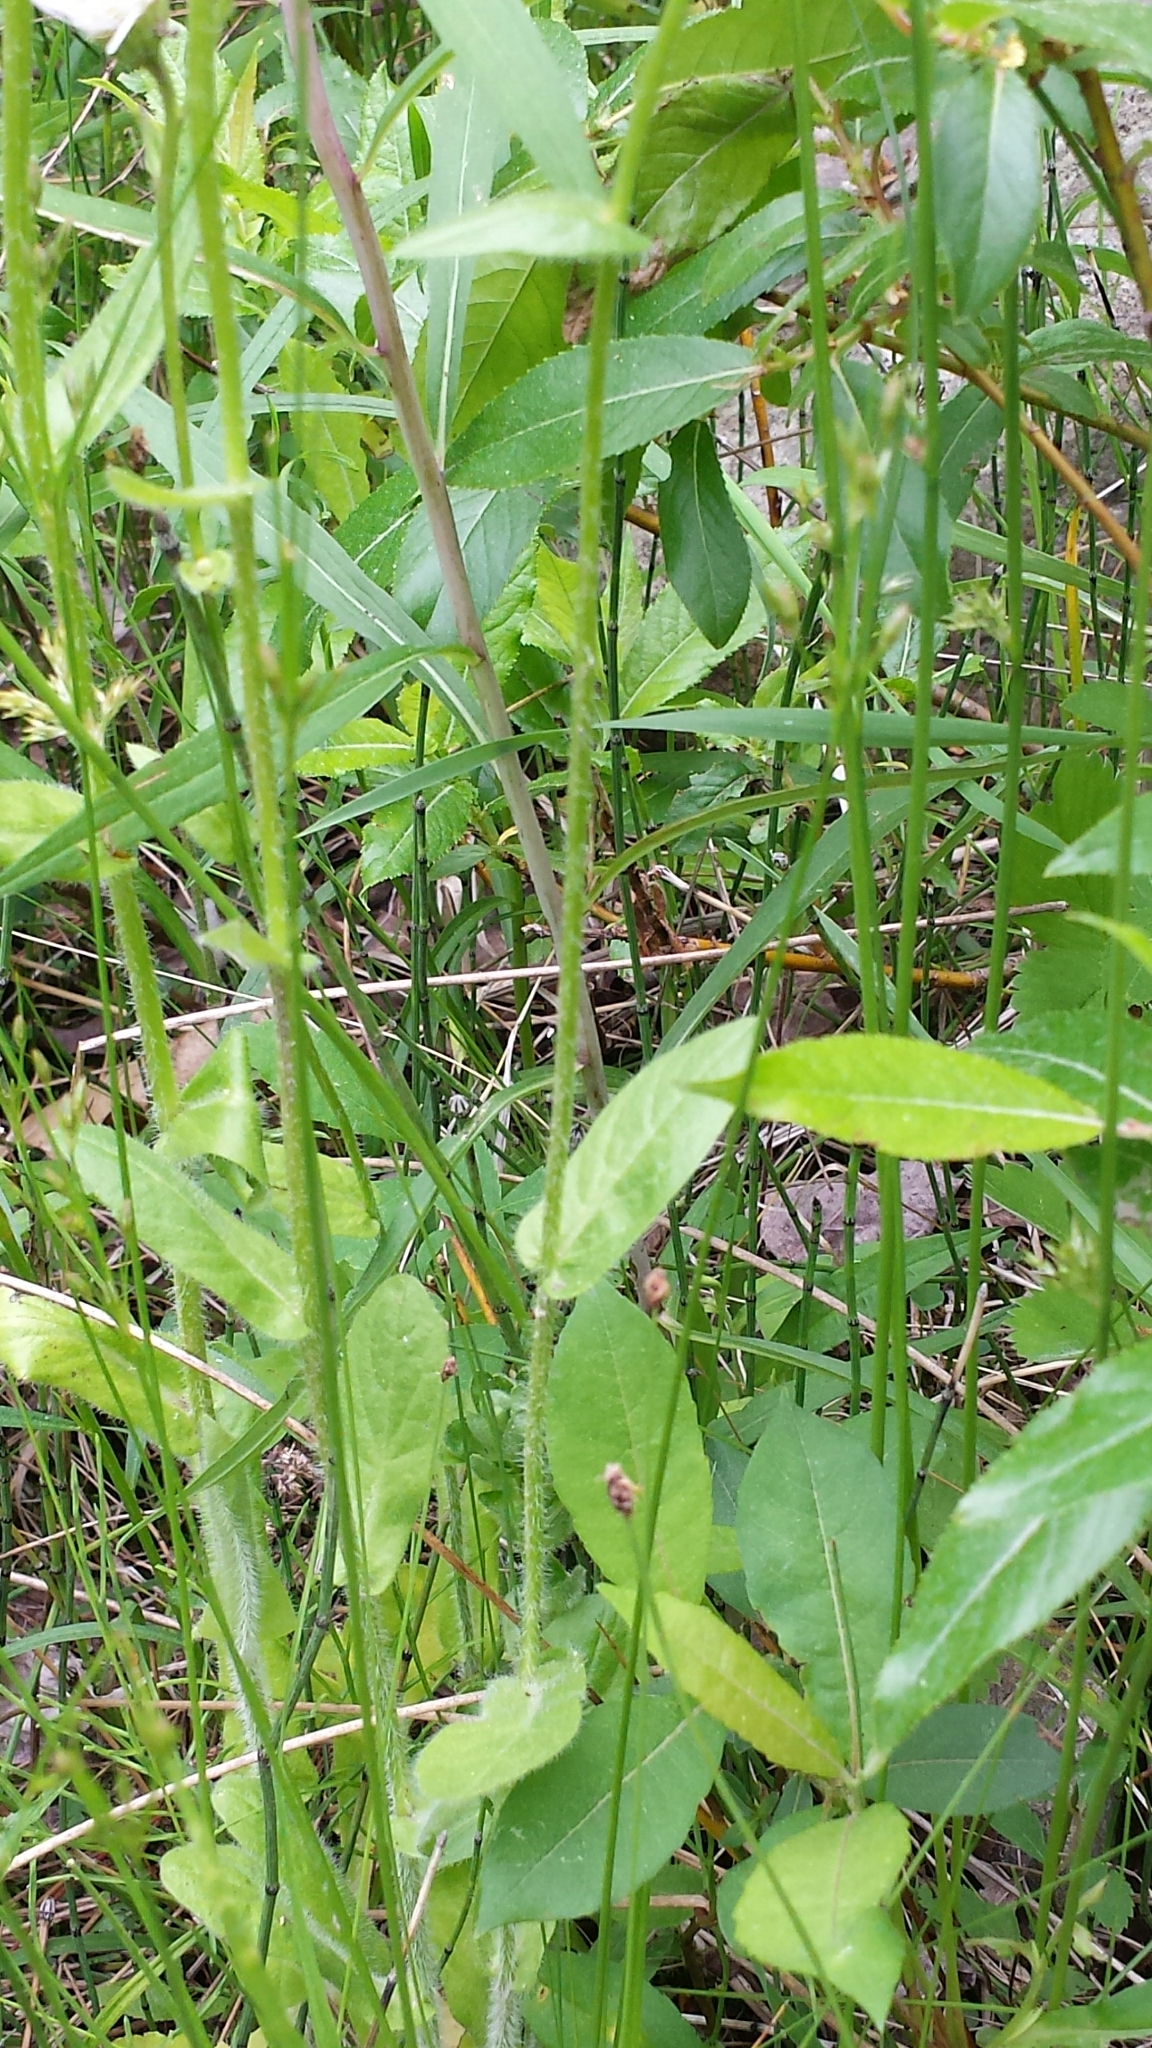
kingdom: Plantae
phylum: Tracheophyta
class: Magnoliopsida
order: Asterales
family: Asteraceae
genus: Erigeron
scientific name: Erigeron philadelphicus
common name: Robin's-plantain
